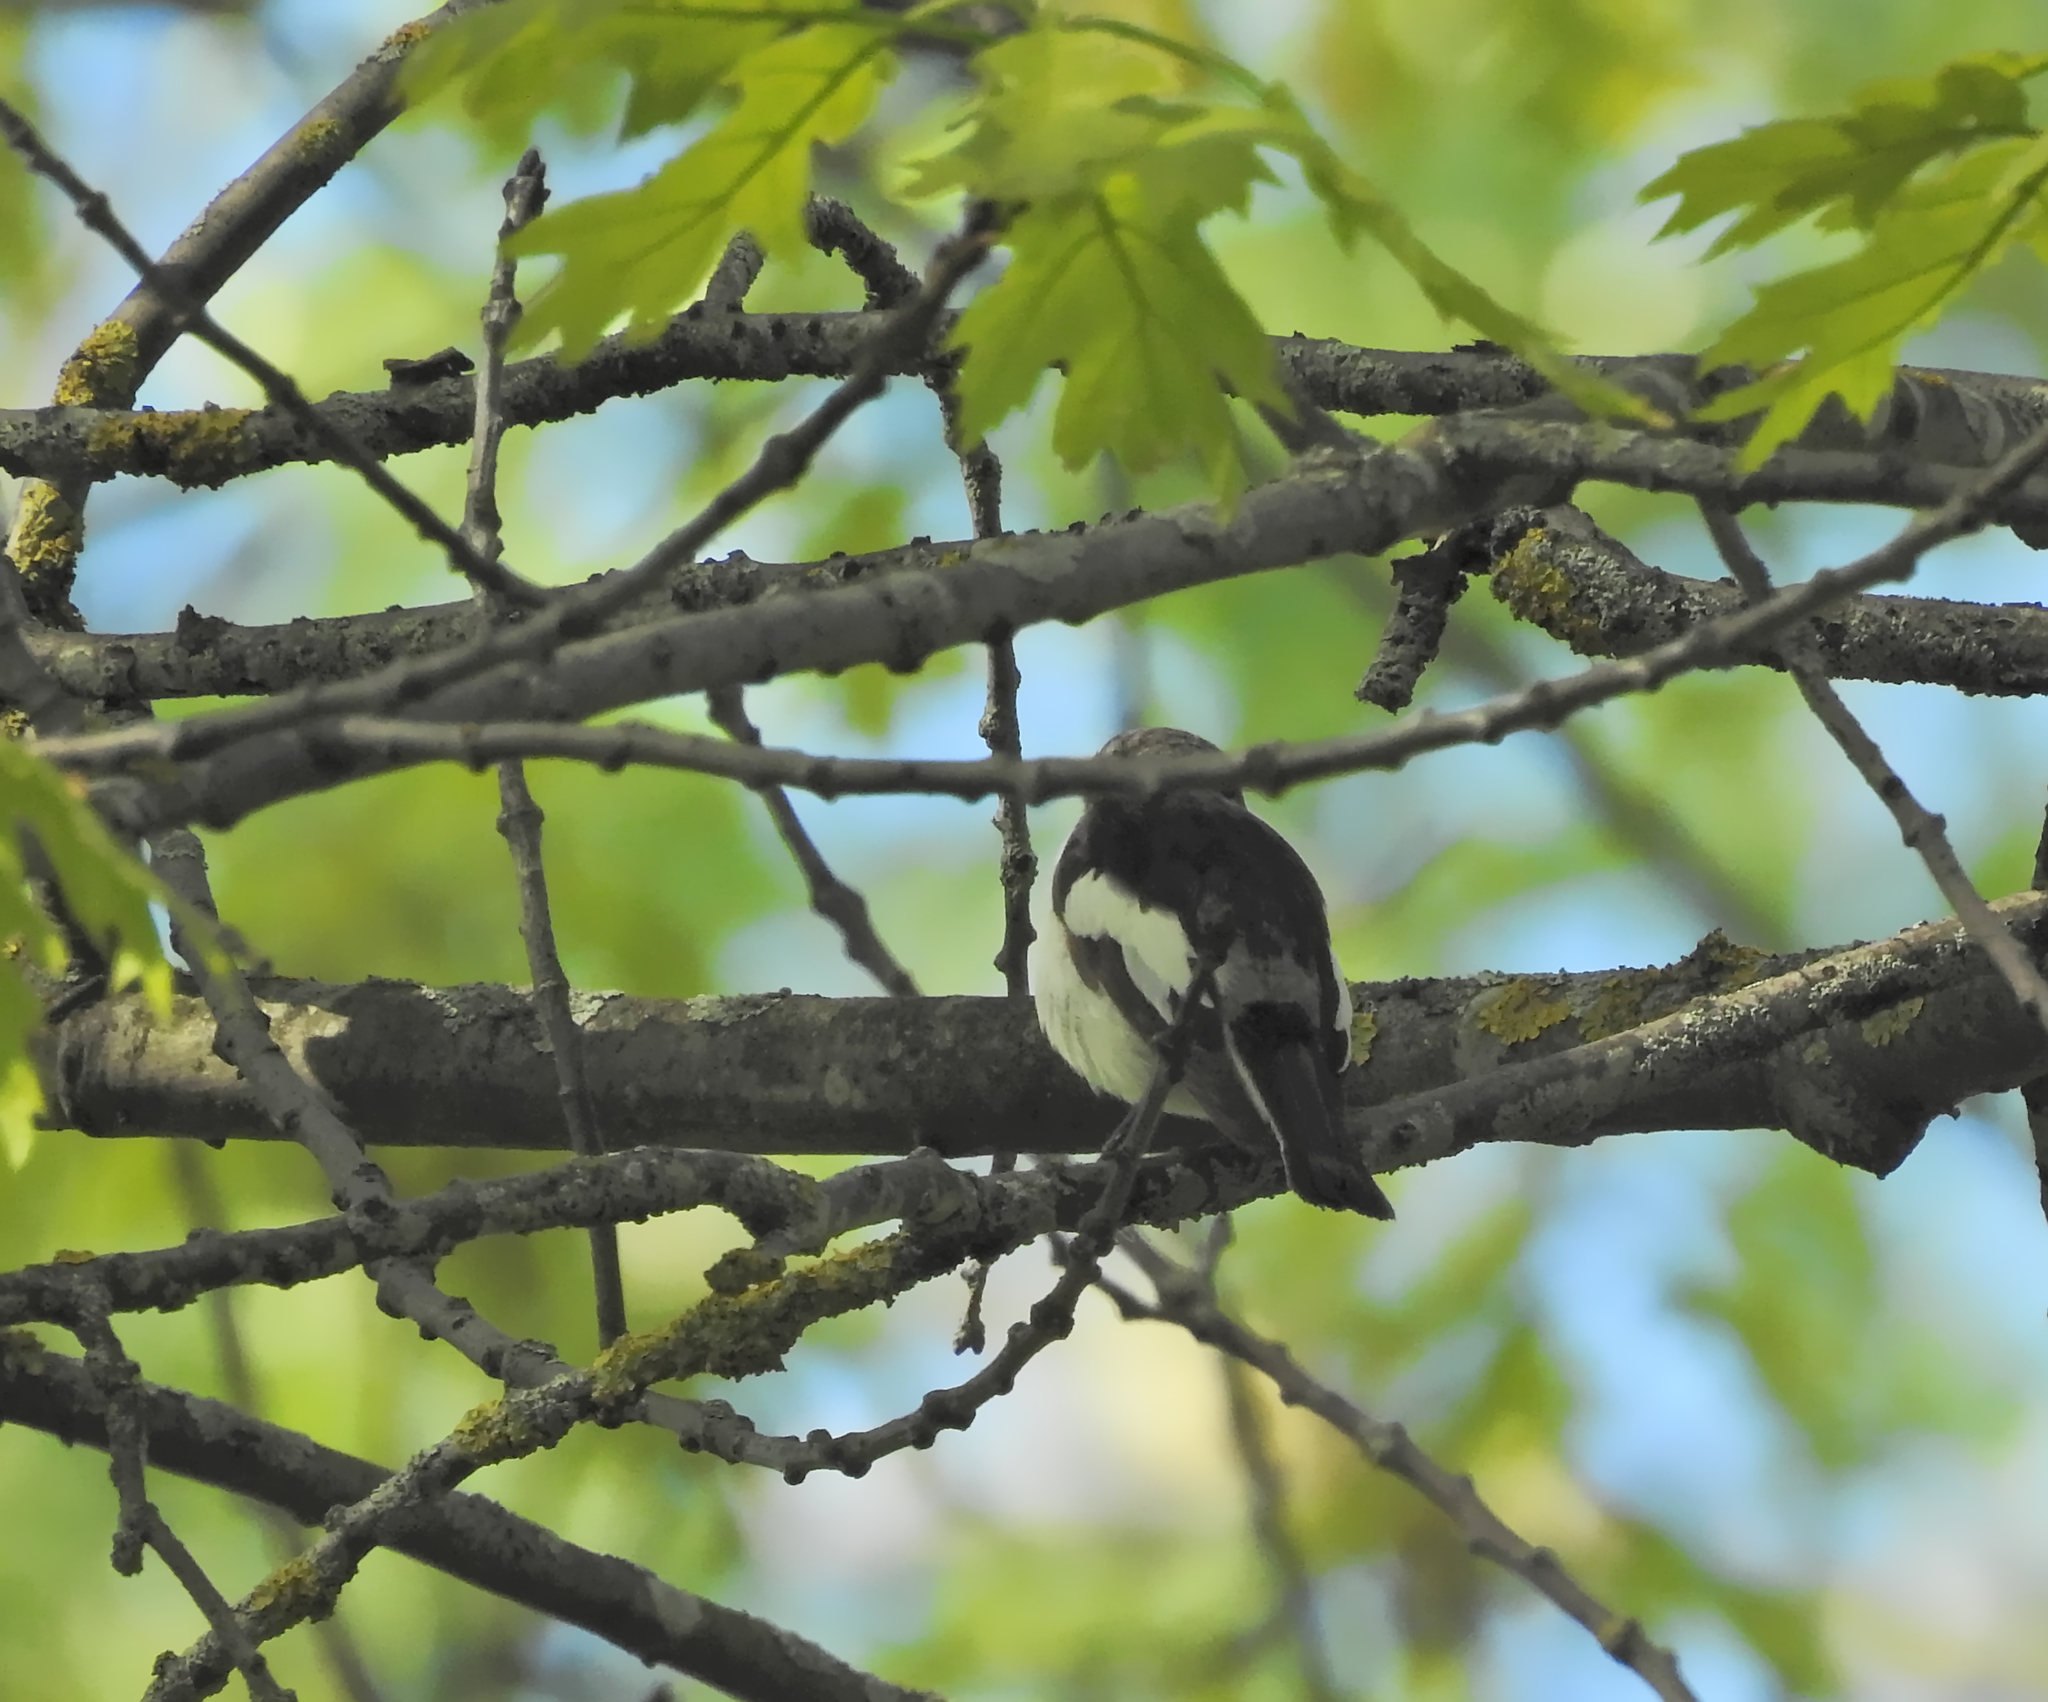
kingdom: Animalia
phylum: Chordata
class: Aves
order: Passeriformes
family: Muscicapidae
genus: Ficedula
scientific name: Ficedula hypoleuca
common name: European pied flycatcher
